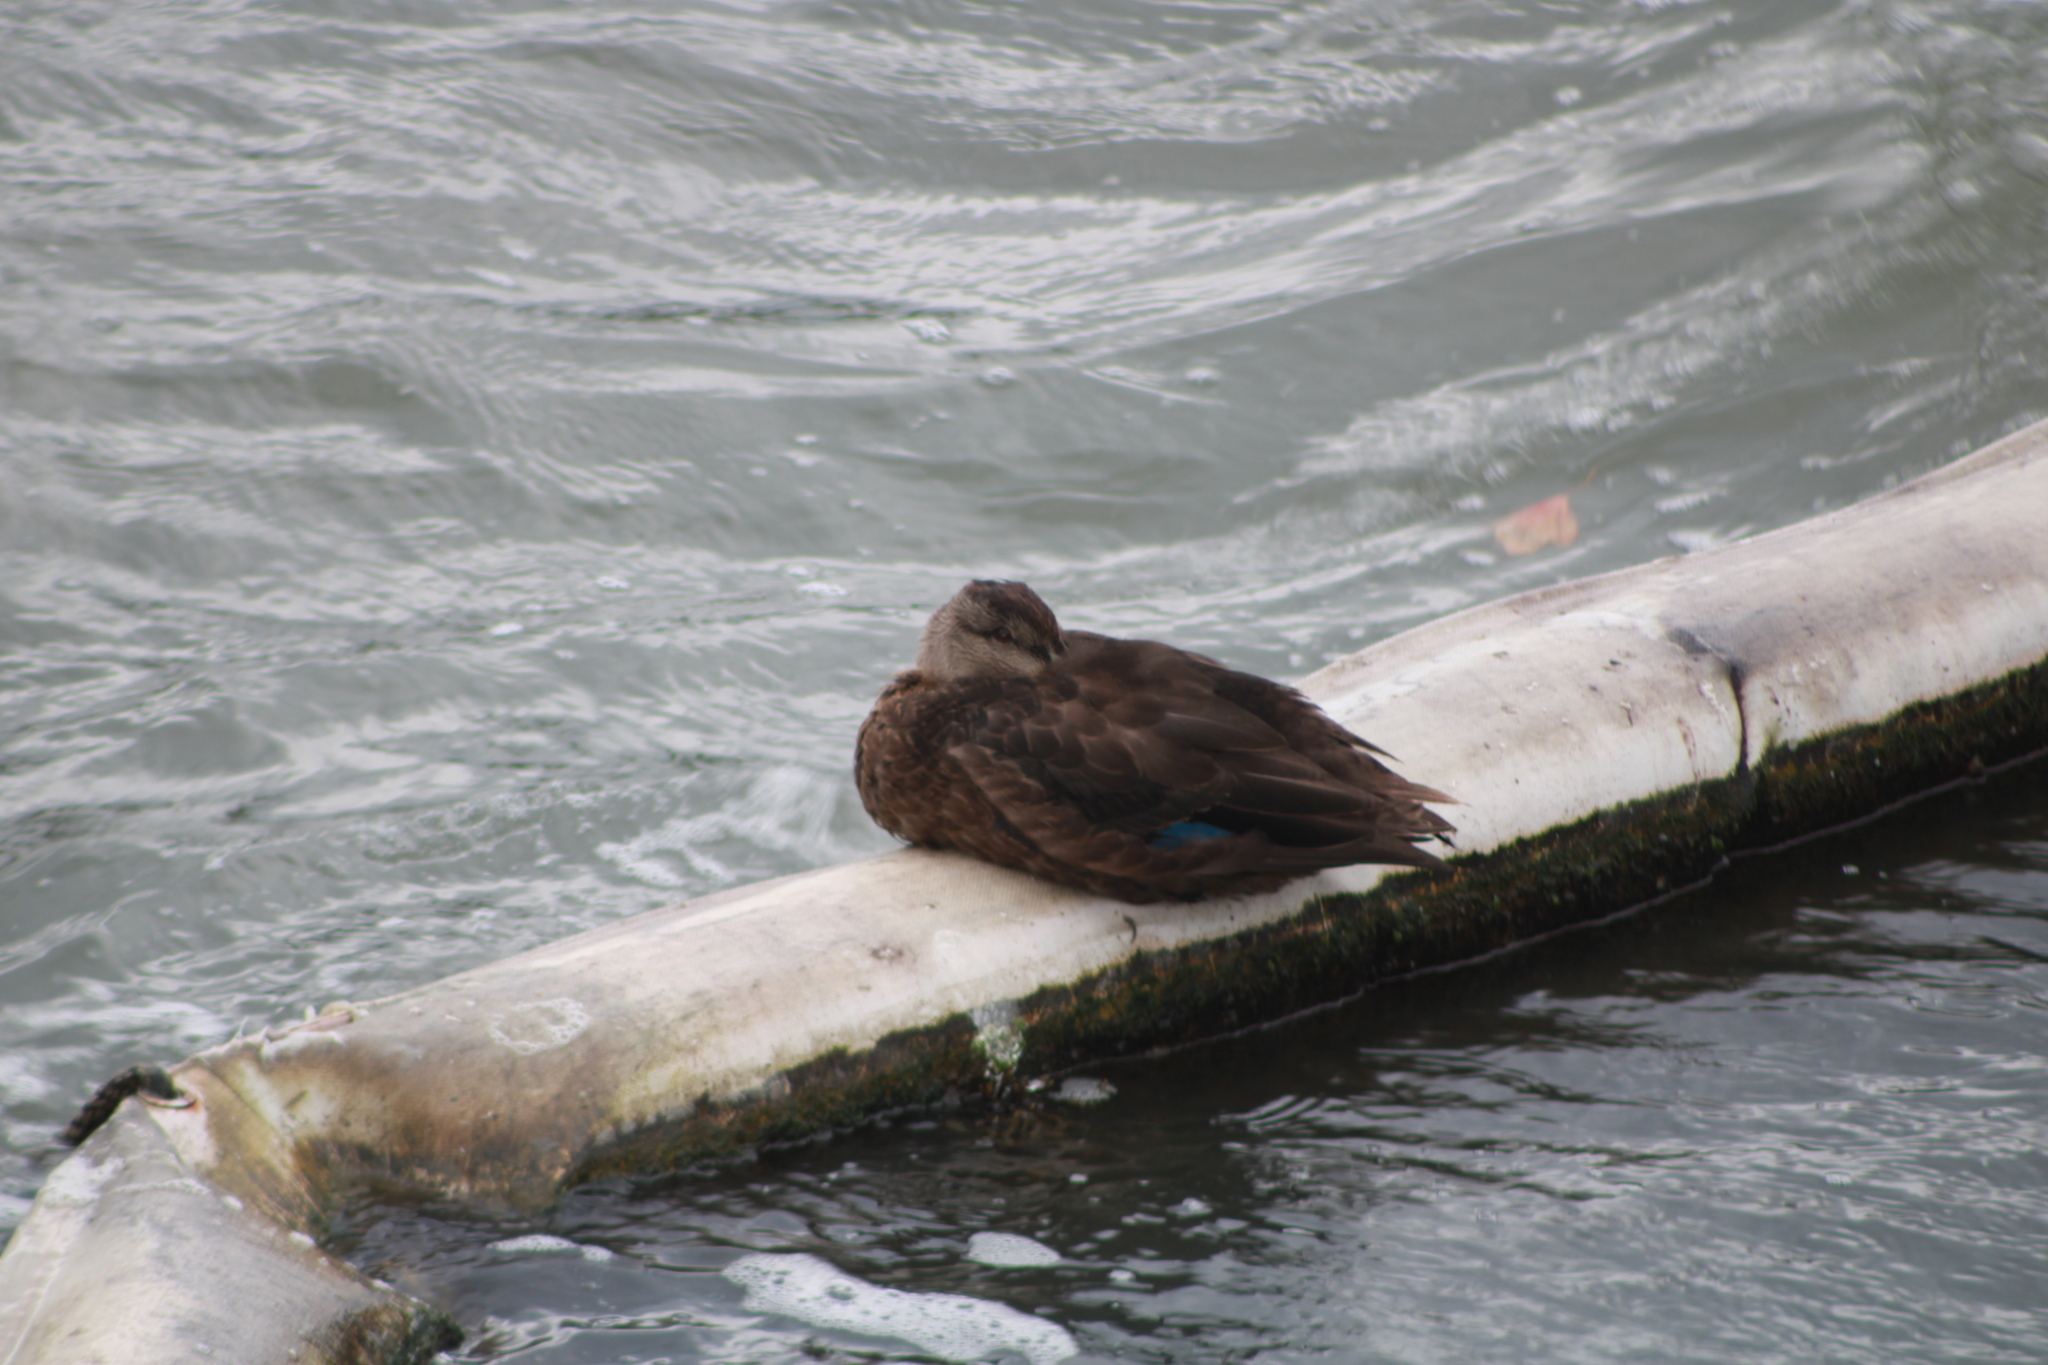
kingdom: Animalia
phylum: Chordata
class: Aves
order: Anseriformes
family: Anatidae
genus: Anas
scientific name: Anas rubripes
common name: American black duck
